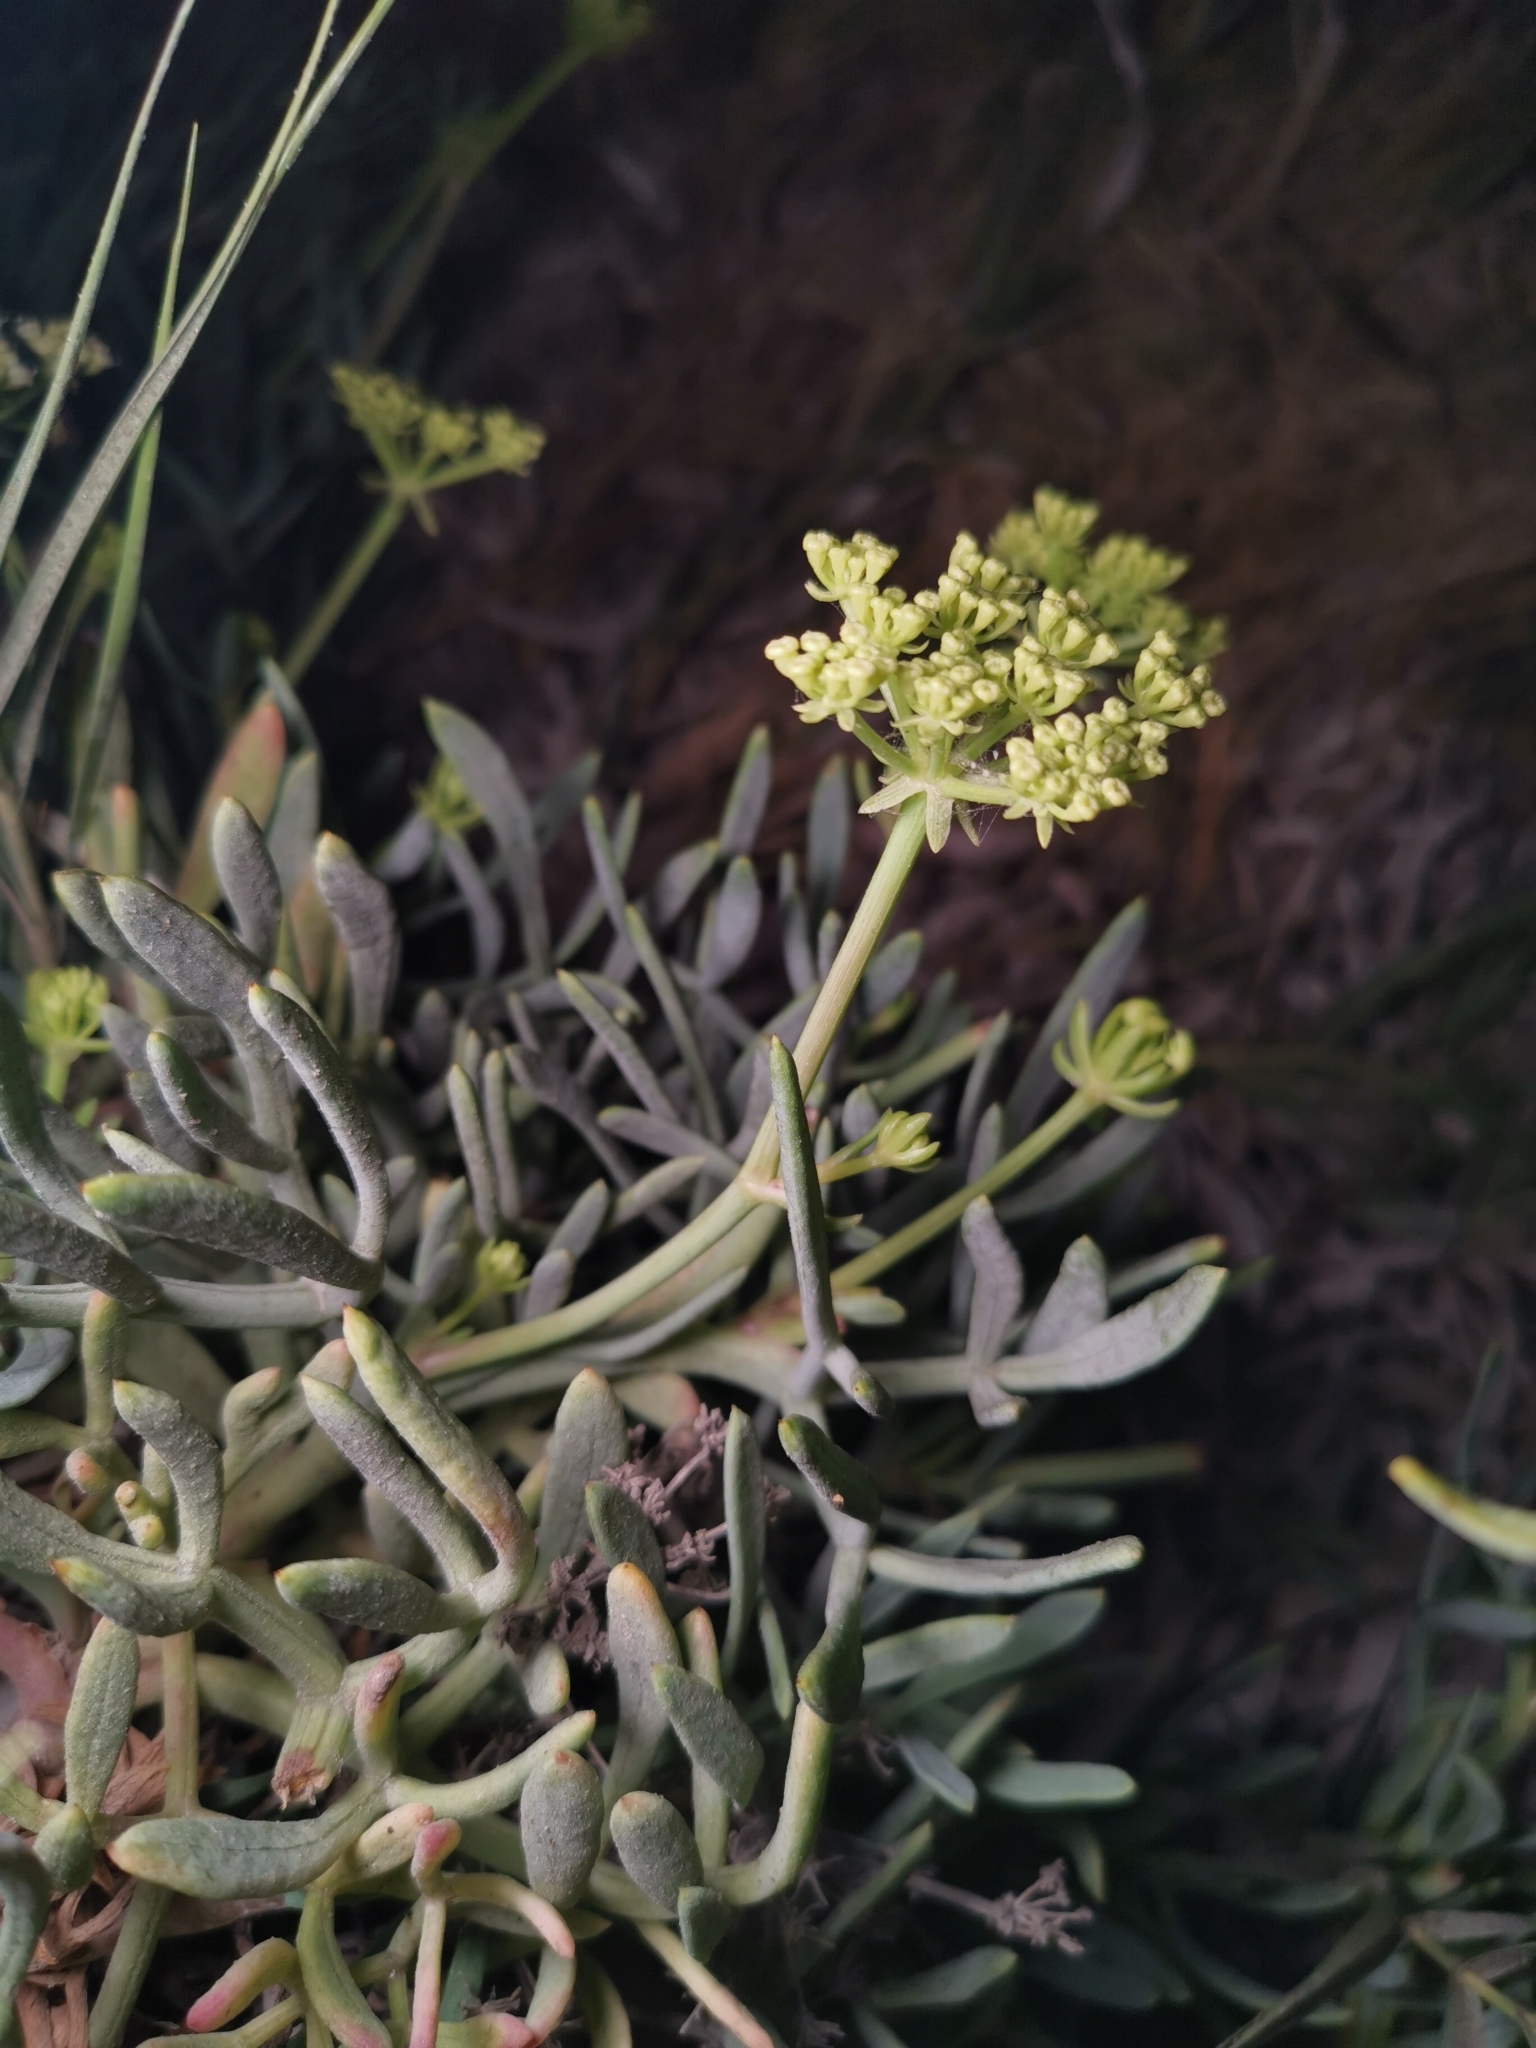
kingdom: Plantae
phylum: Tracheophyta
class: Magnoliopsida
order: Apiales
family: Apiaceae
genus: Crithmum
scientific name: Crithmum maritimum
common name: Rock samphire
